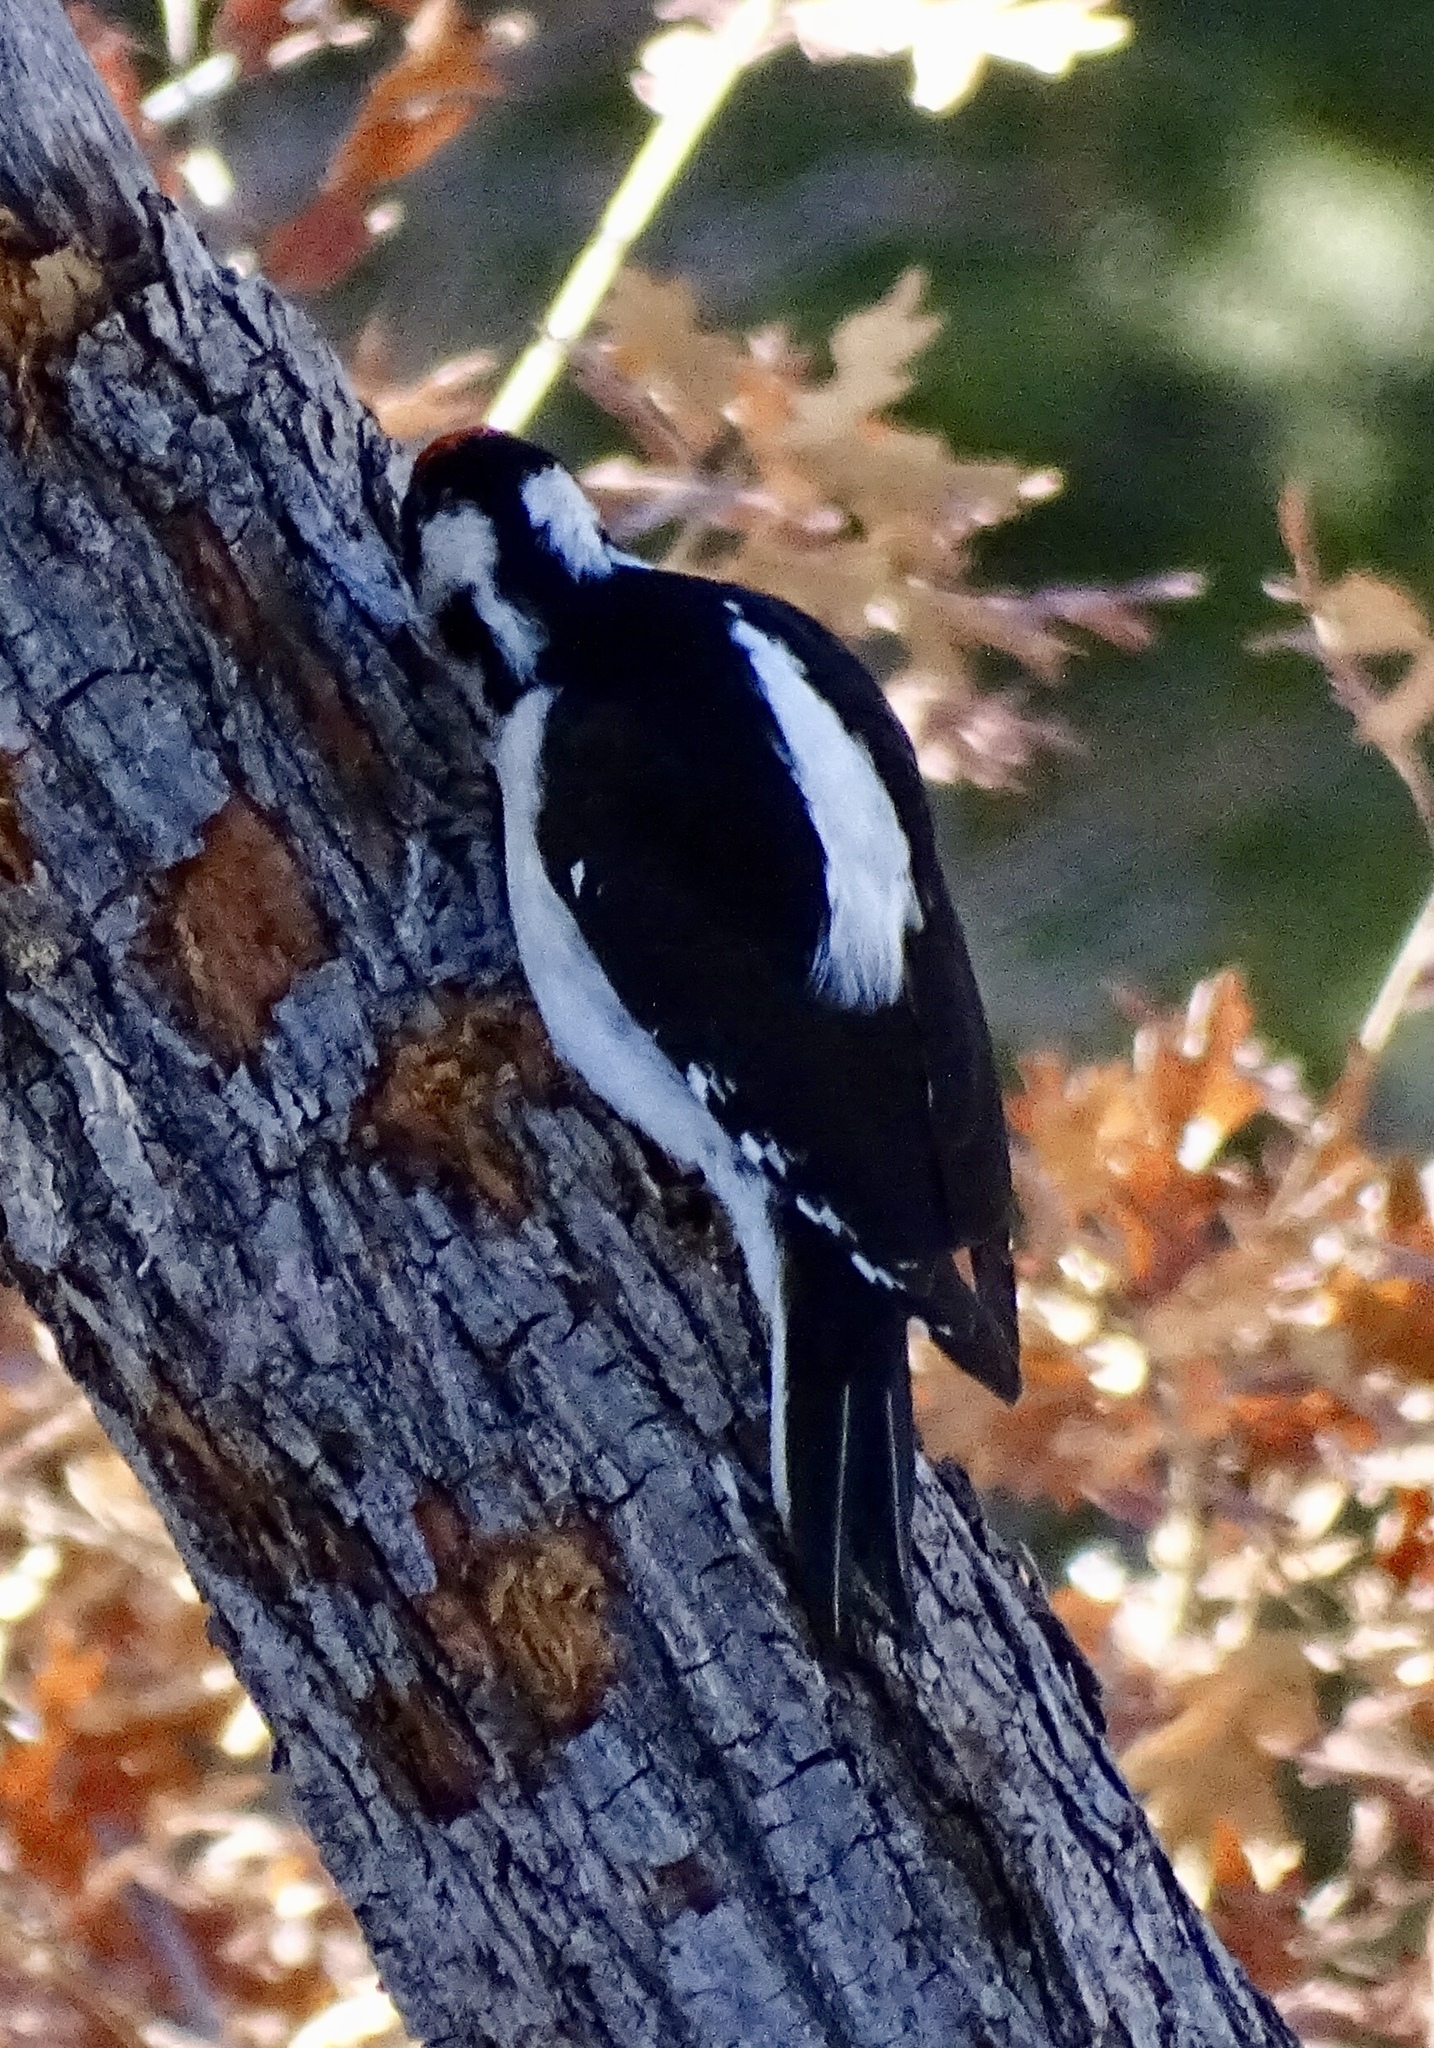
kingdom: Animalia
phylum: Chordata
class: Aves
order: Piciformes
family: Picidae
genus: Leuconotopicus
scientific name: Leuconotopicus villosus
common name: Hairy woodpecker
